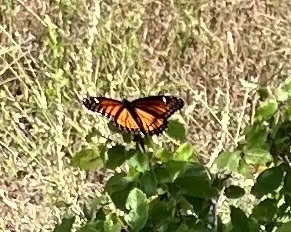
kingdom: Animalia
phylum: Arthropoda
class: Insecta
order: Lepidoptera
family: Nymphalidae
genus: Limenitis
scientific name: Limenitis archippus
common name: Viceroy
